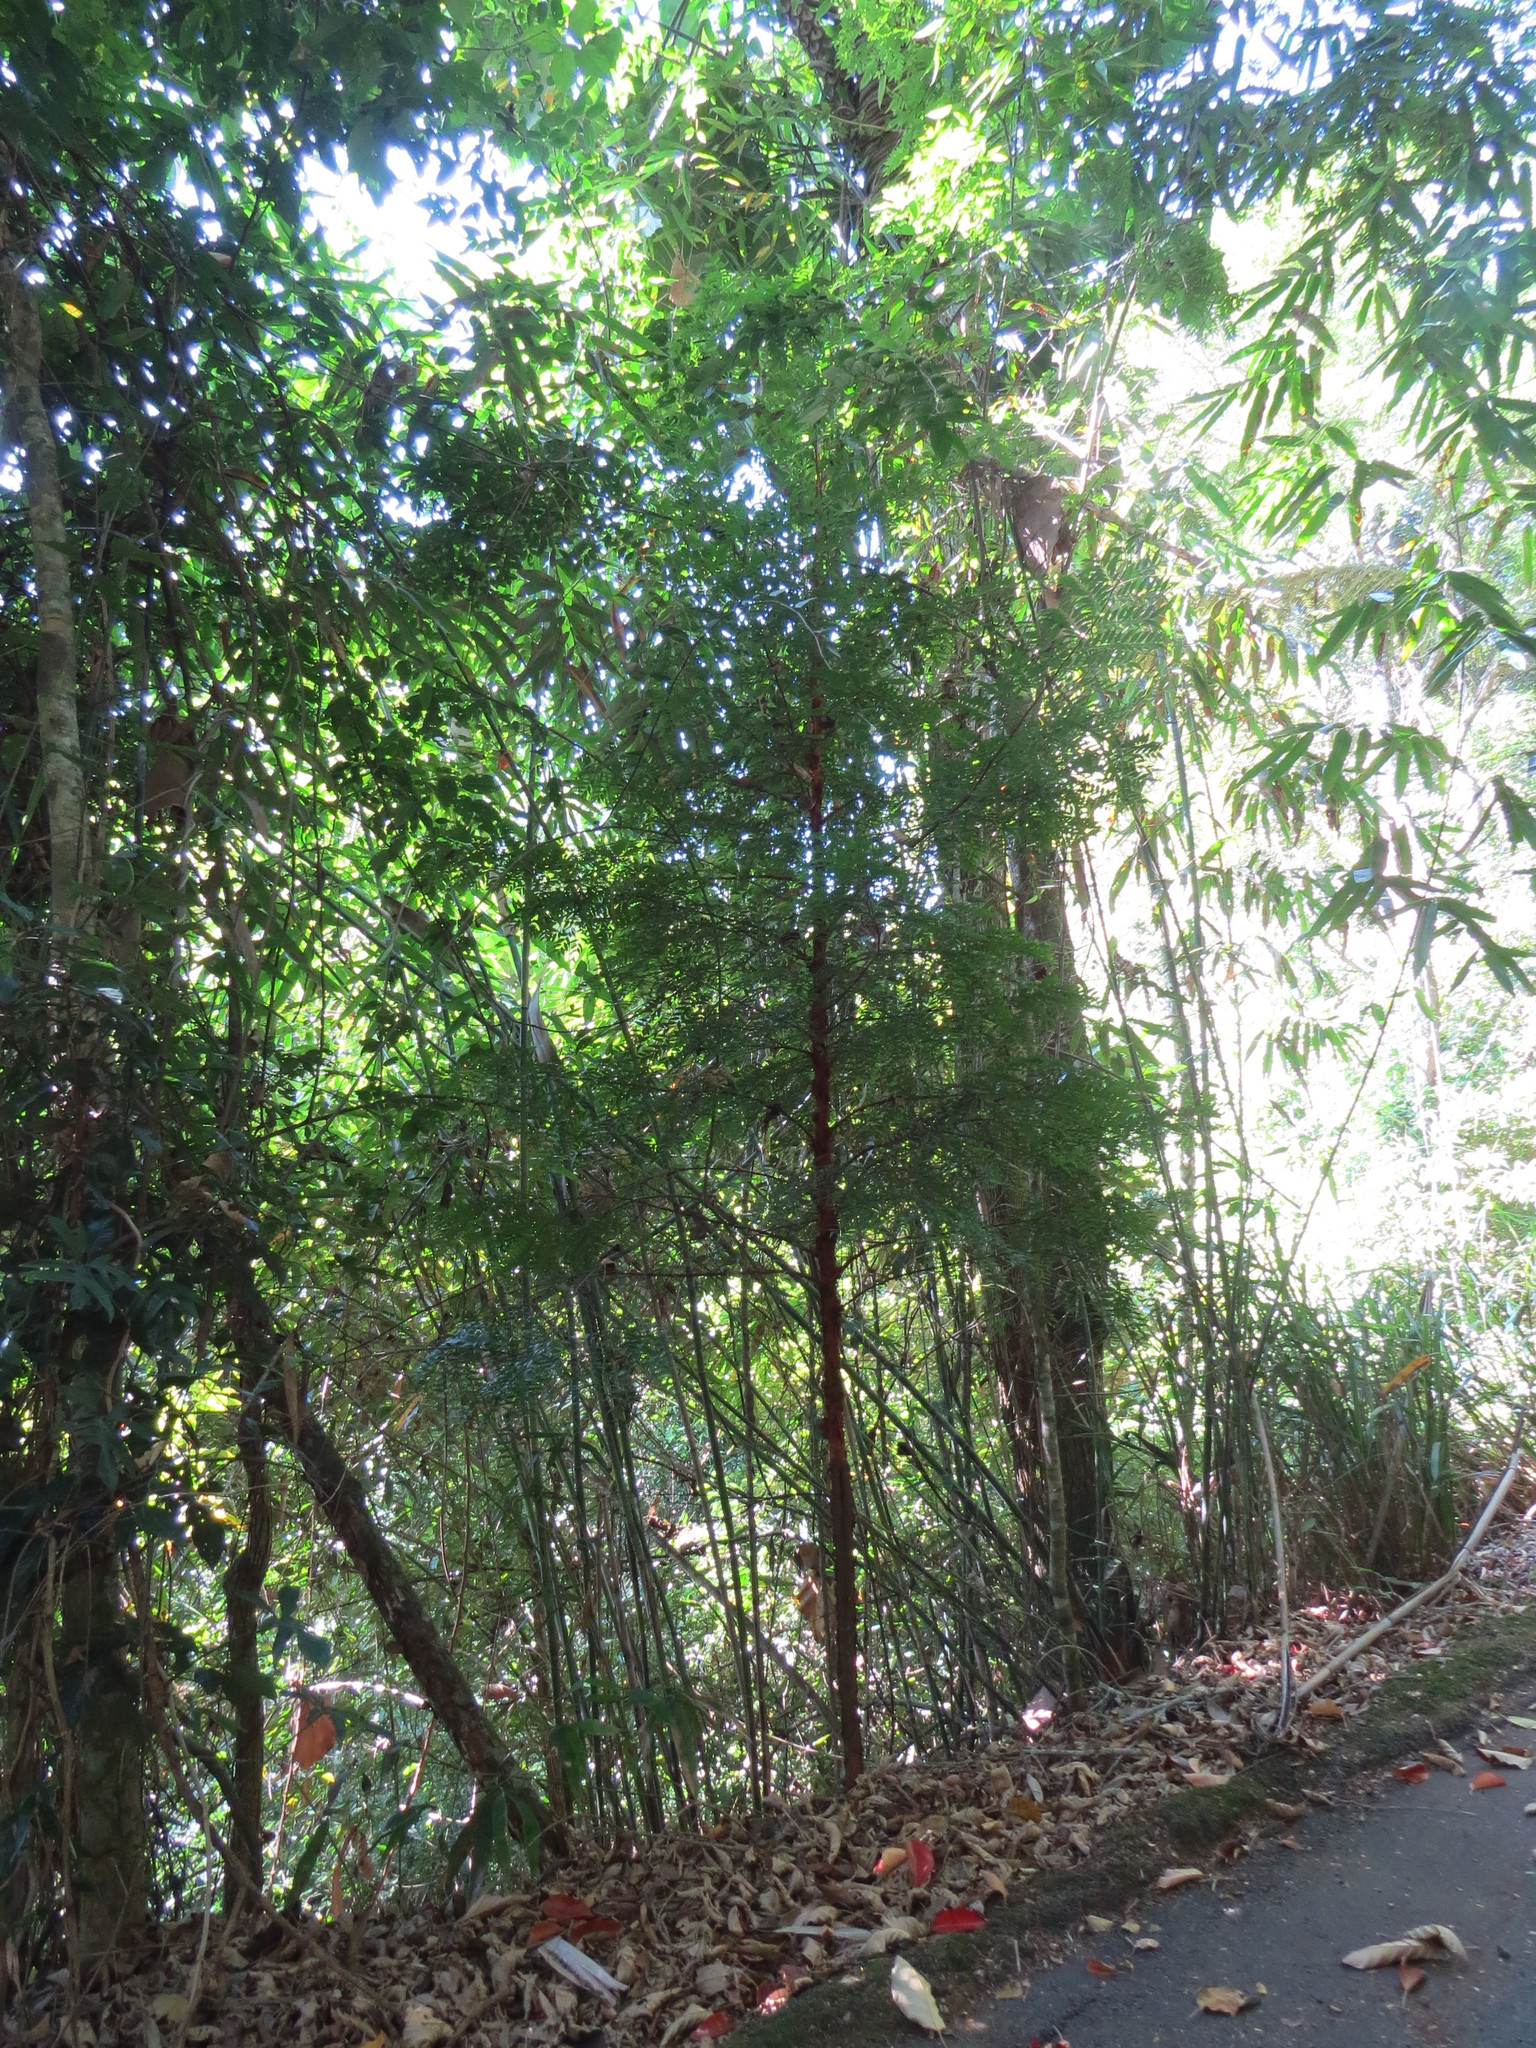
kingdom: Plantae
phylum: Tracheophyta
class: Magnoliopsida
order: Magnoliales
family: Annonaceae
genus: Xylopia
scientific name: Xylopia brasiliensis
